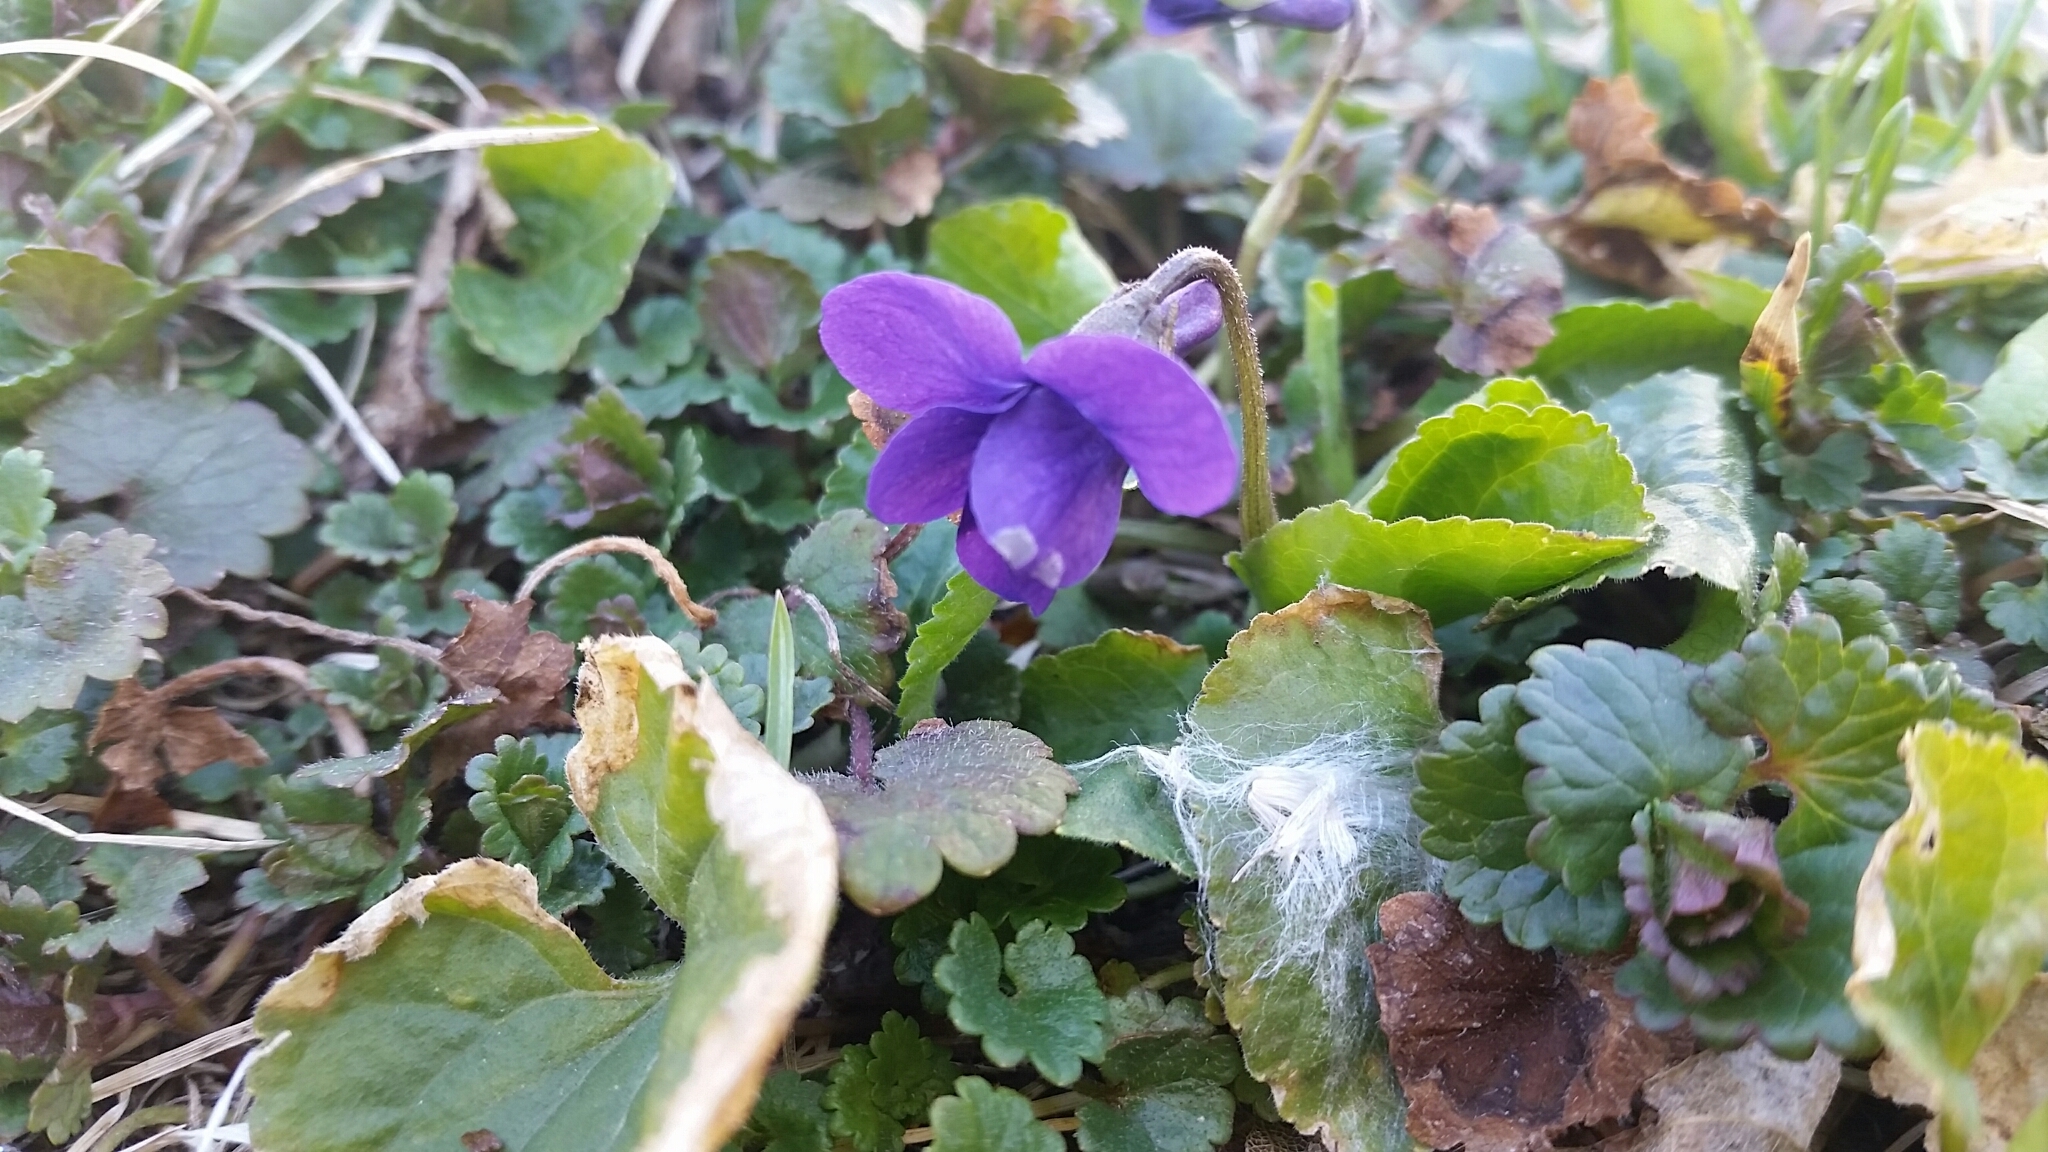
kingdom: Plantae
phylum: Tracheophyta
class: Magnoliopsida
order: Malpighiales
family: Violaceae
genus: Viola
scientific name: Viola sororia
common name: Dooryard violet
